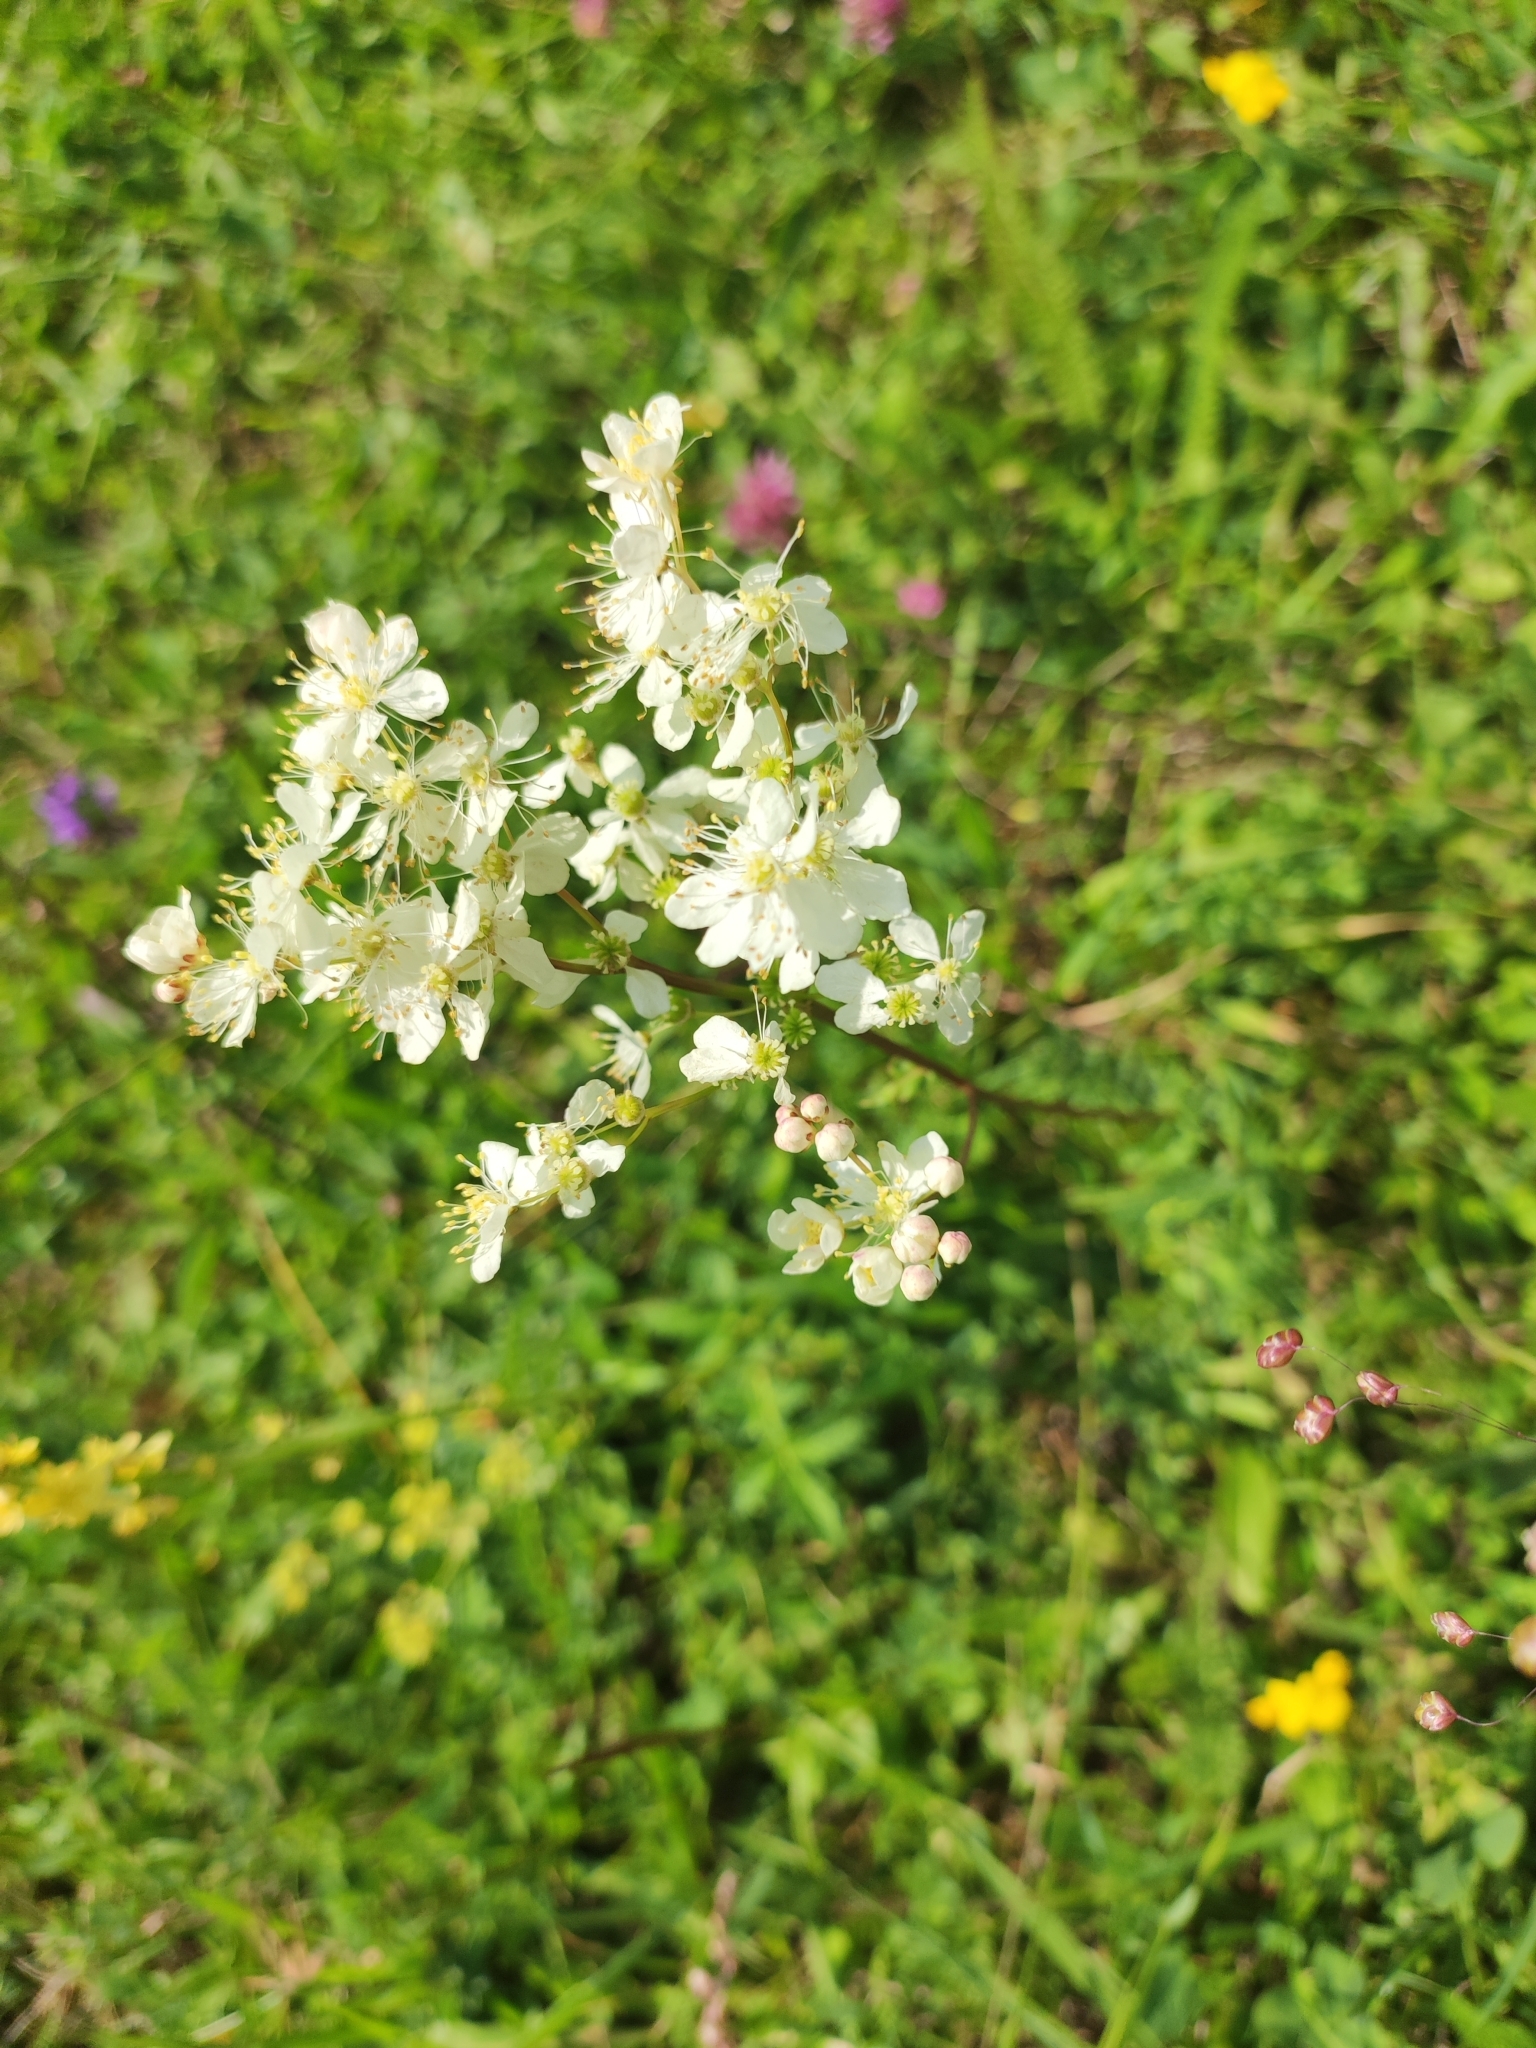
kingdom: Plantae
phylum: Tracheophyta
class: Magnoliopsida
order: Rosales
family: Rosaceae
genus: Filipendula
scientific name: Filipendula vulgaris
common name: Dropwort
